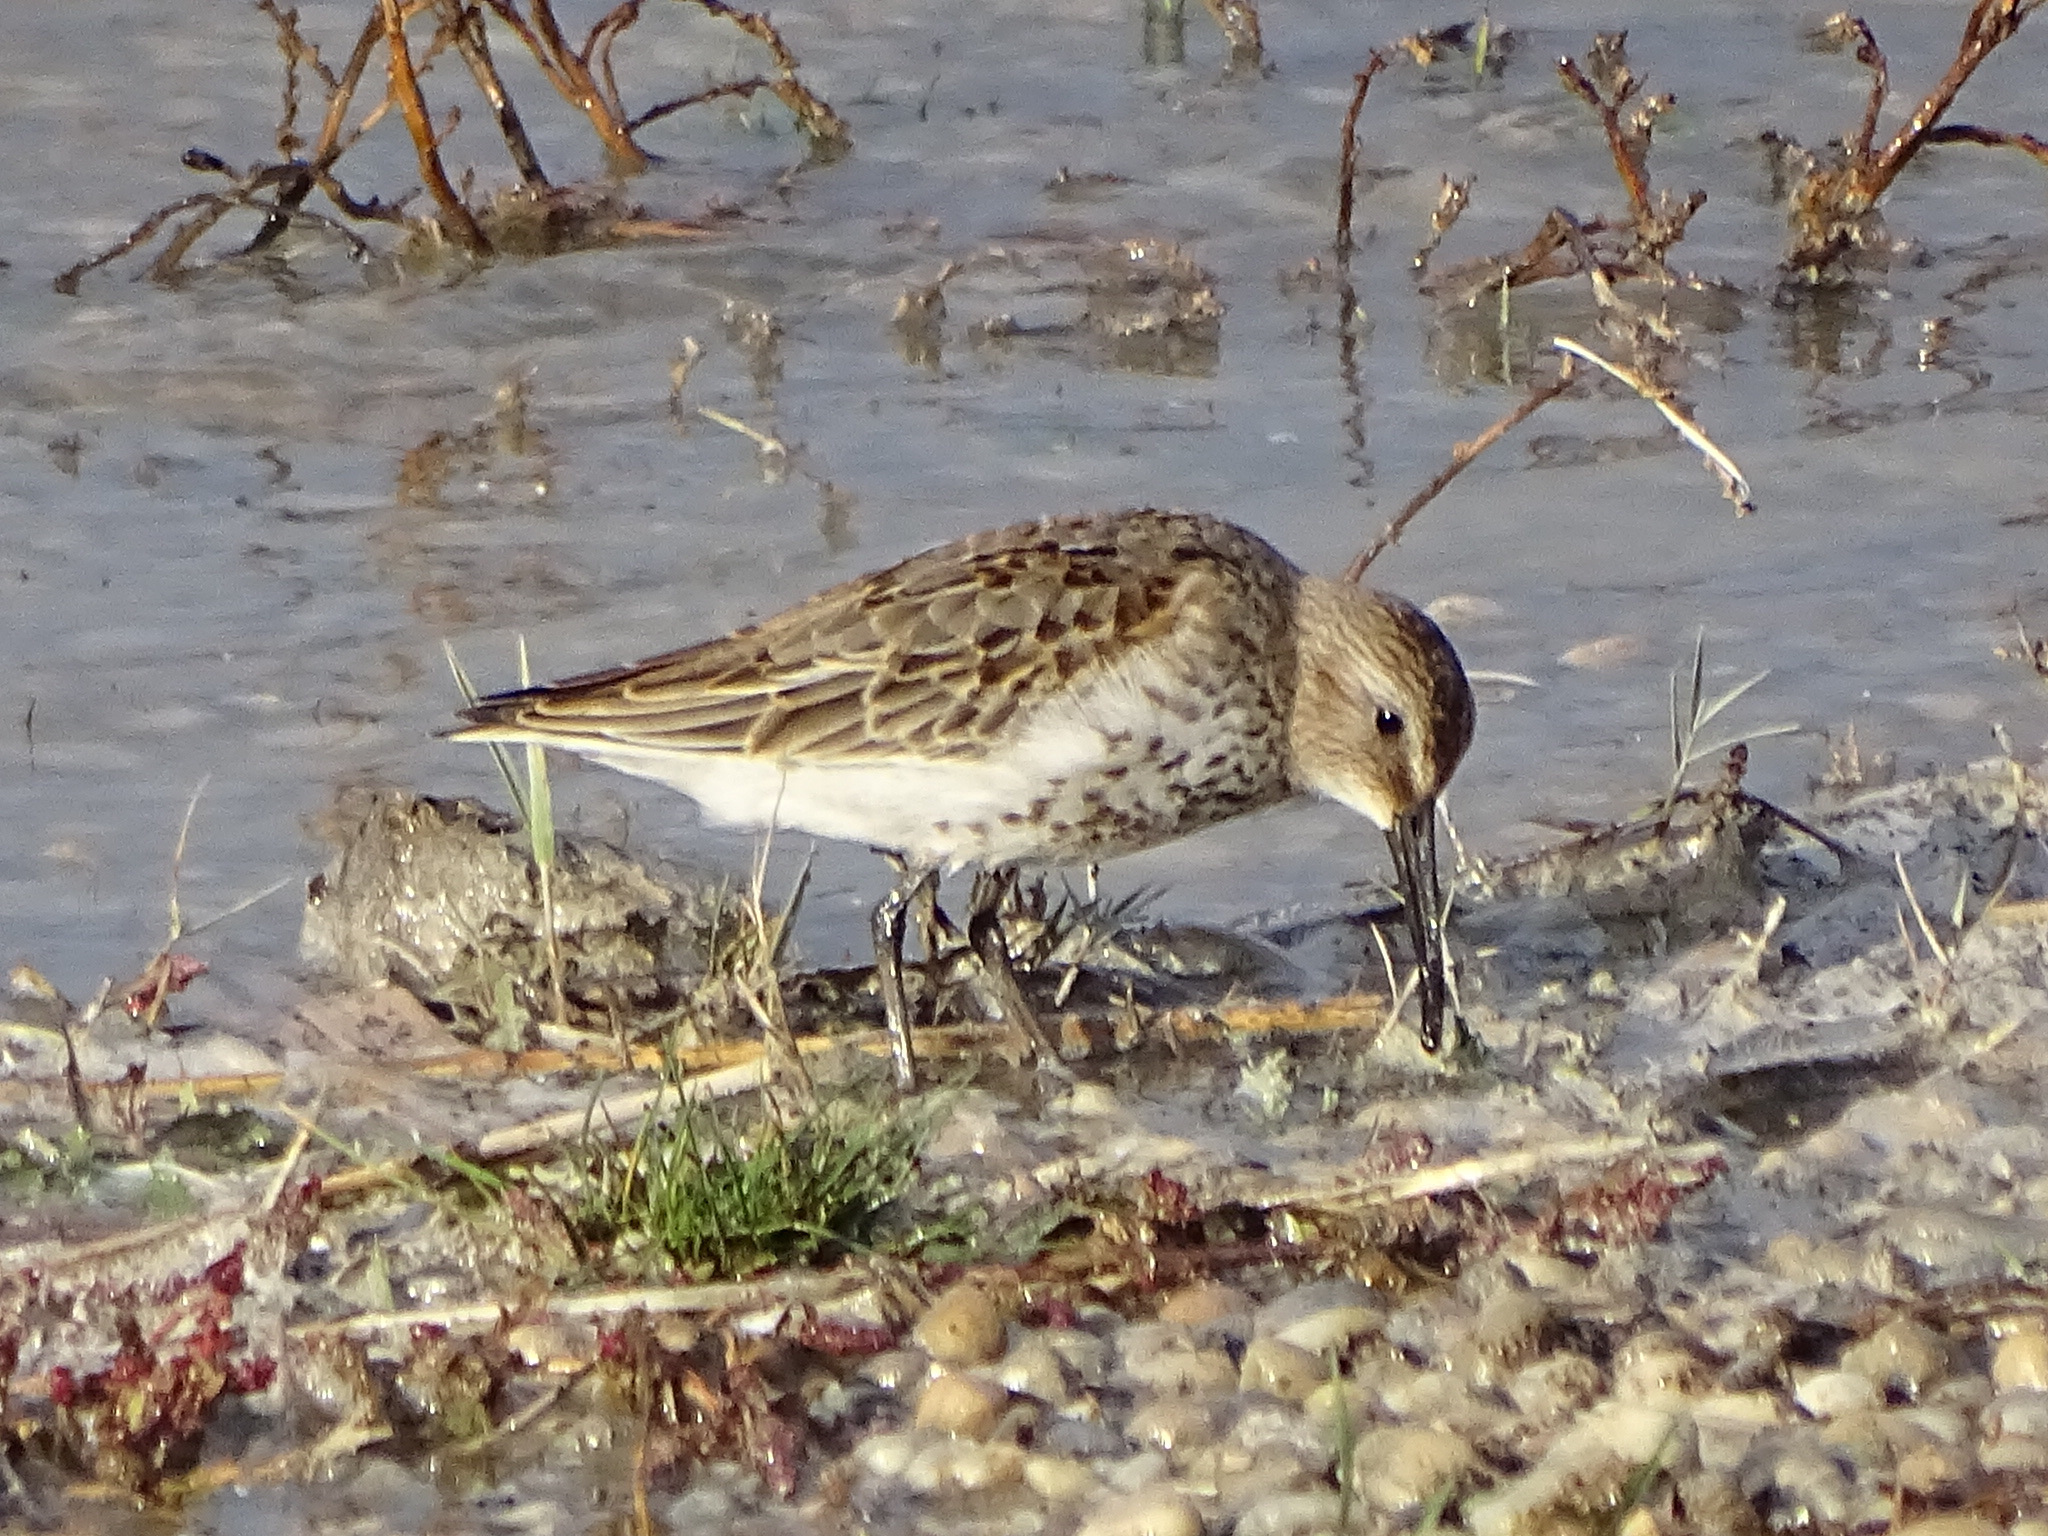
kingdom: Animalia
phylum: Chordata
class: Aves
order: Charadriiformes
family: Scolopacidae
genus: Calidris
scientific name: Calidris alpina
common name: Dunlin
